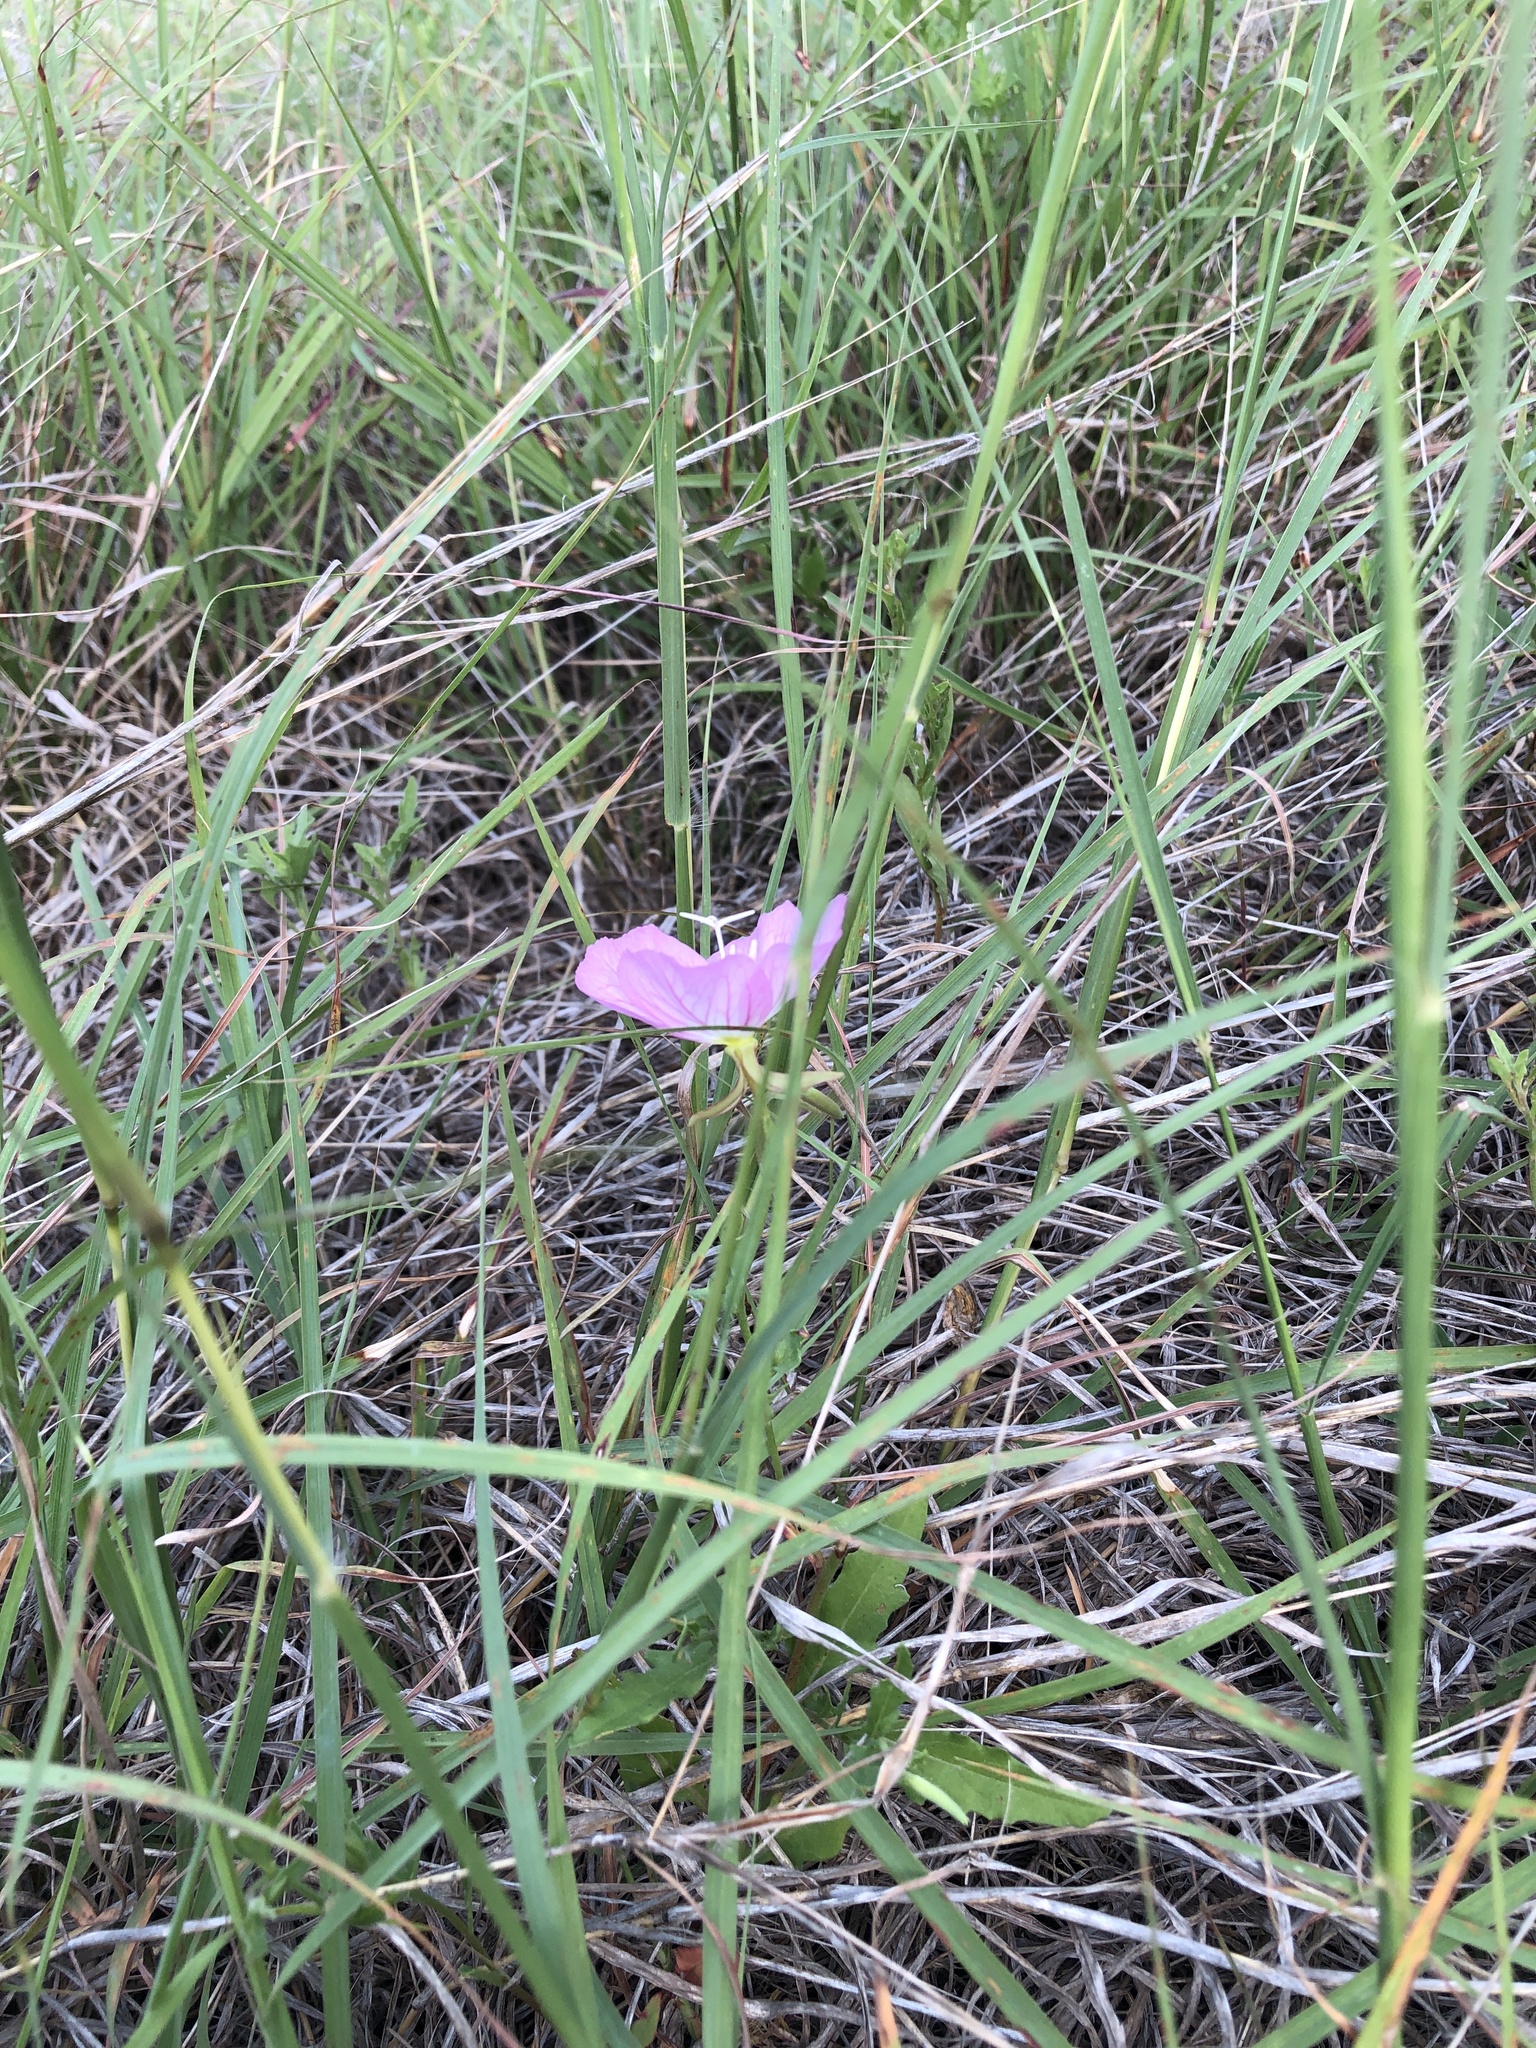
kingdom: Plantae
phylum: Tracheophyta
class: Magnoliopsida
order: Myrtales
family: Onagraceae
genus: Oenothera
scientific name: Oenothera speciosa
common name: White evening-primrose
